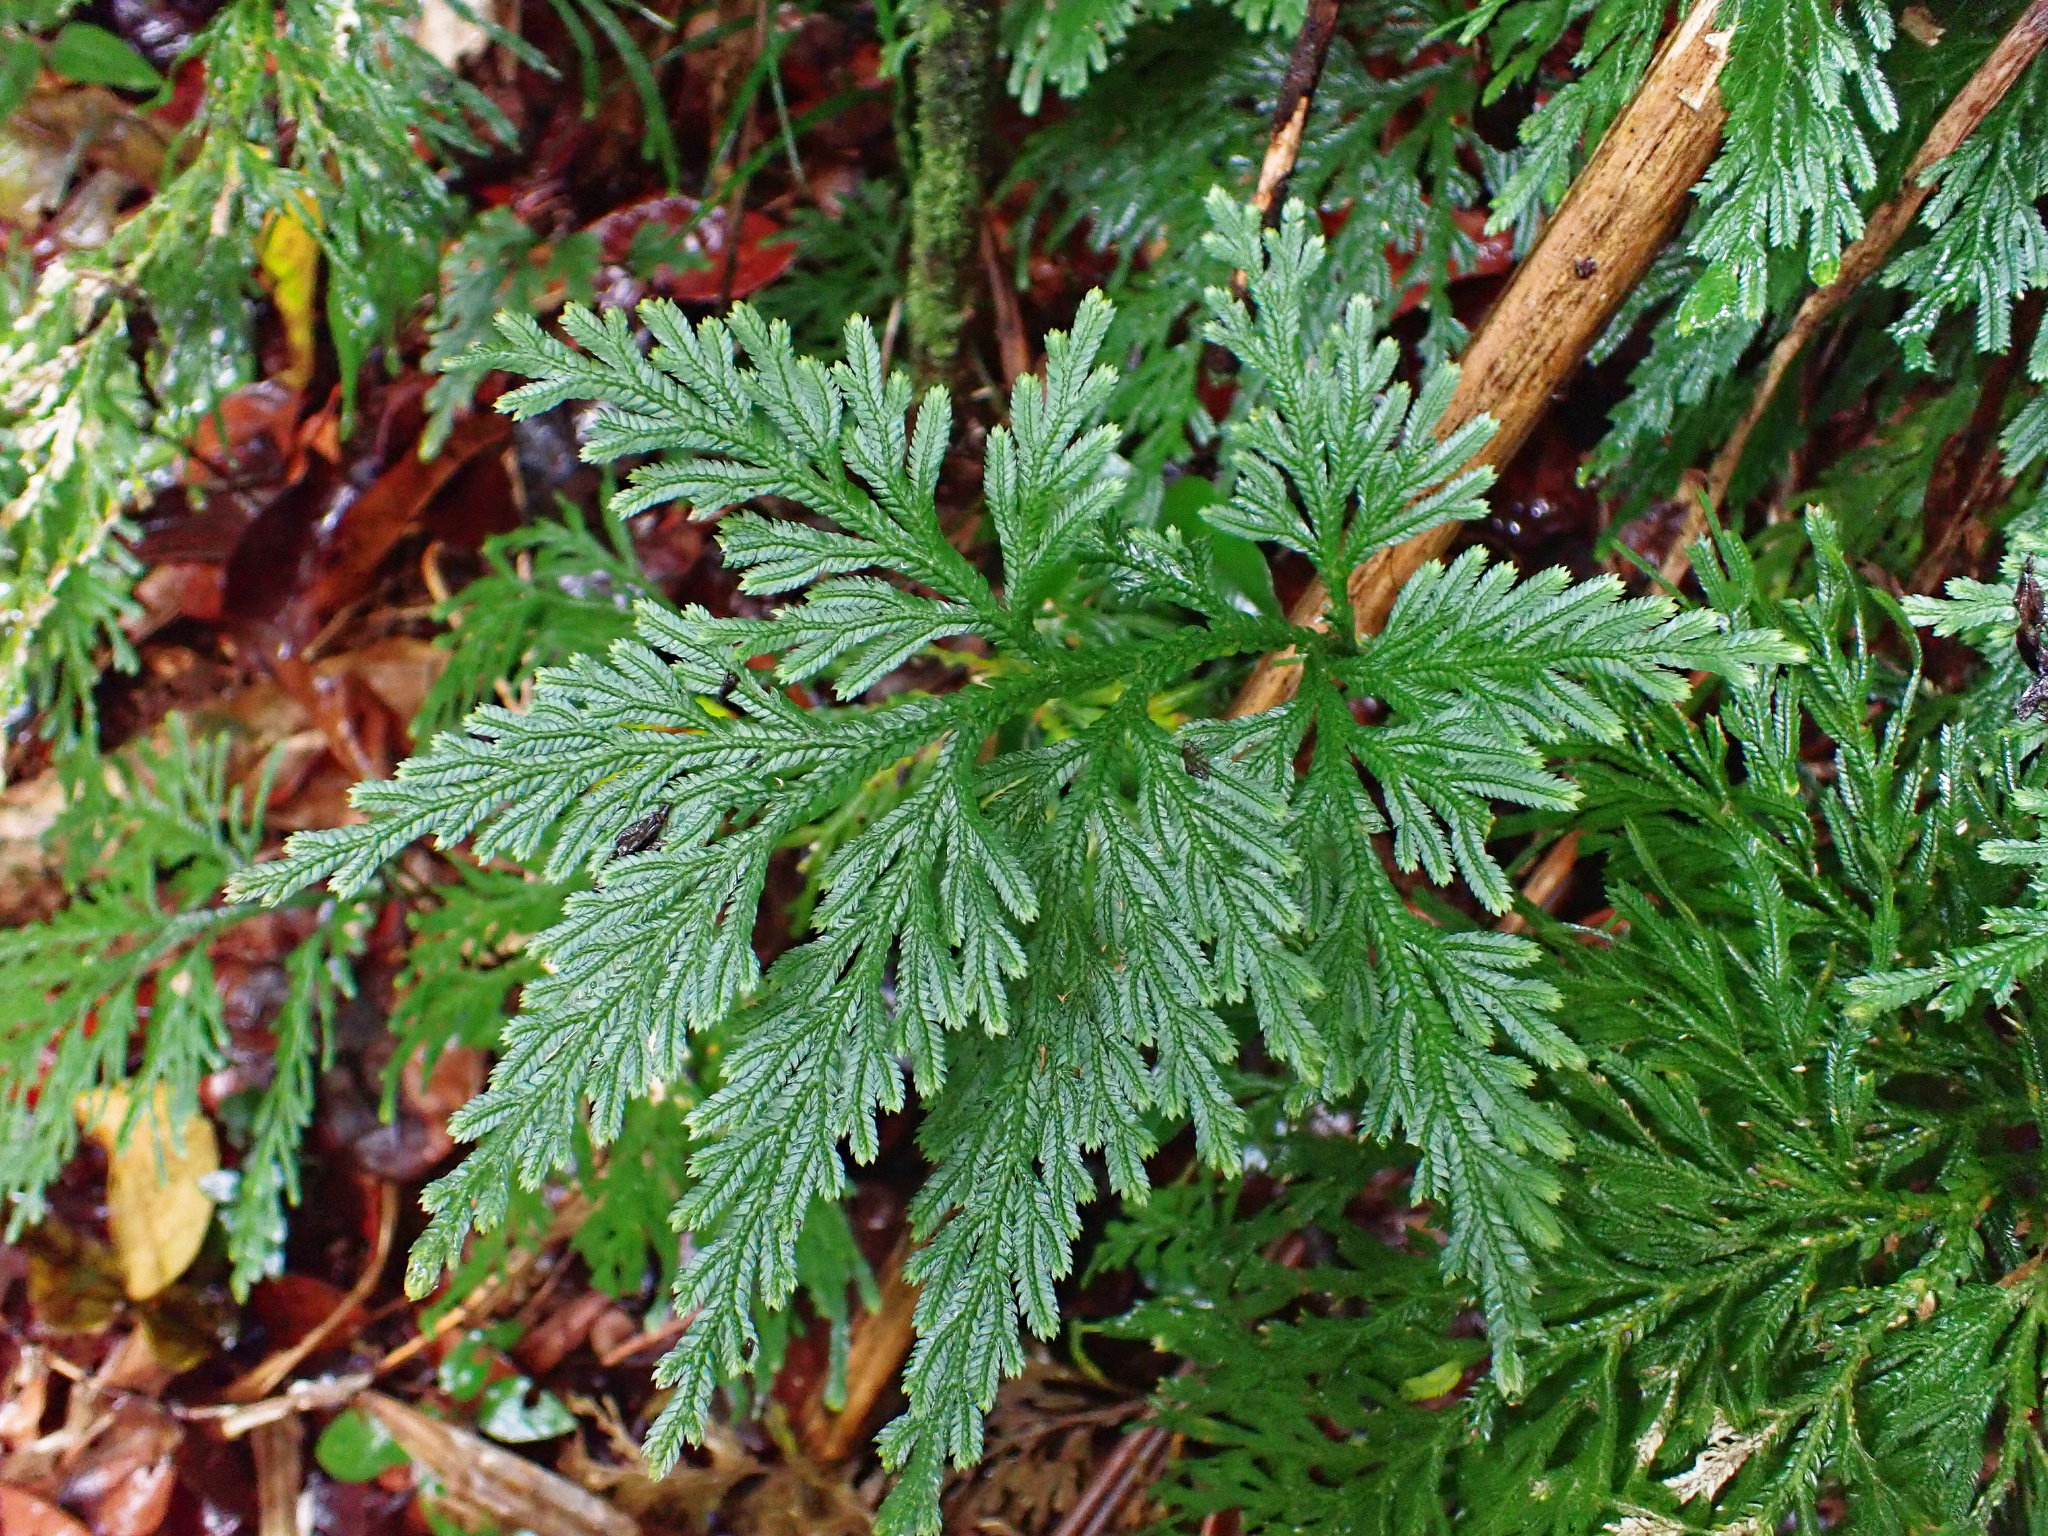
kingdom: Plantae
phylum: Tracheophyta
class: Lycopodiopsida
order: Selaginellales
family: Selaginellaceae
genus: Selaginella
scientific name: Selaginella longipinna
